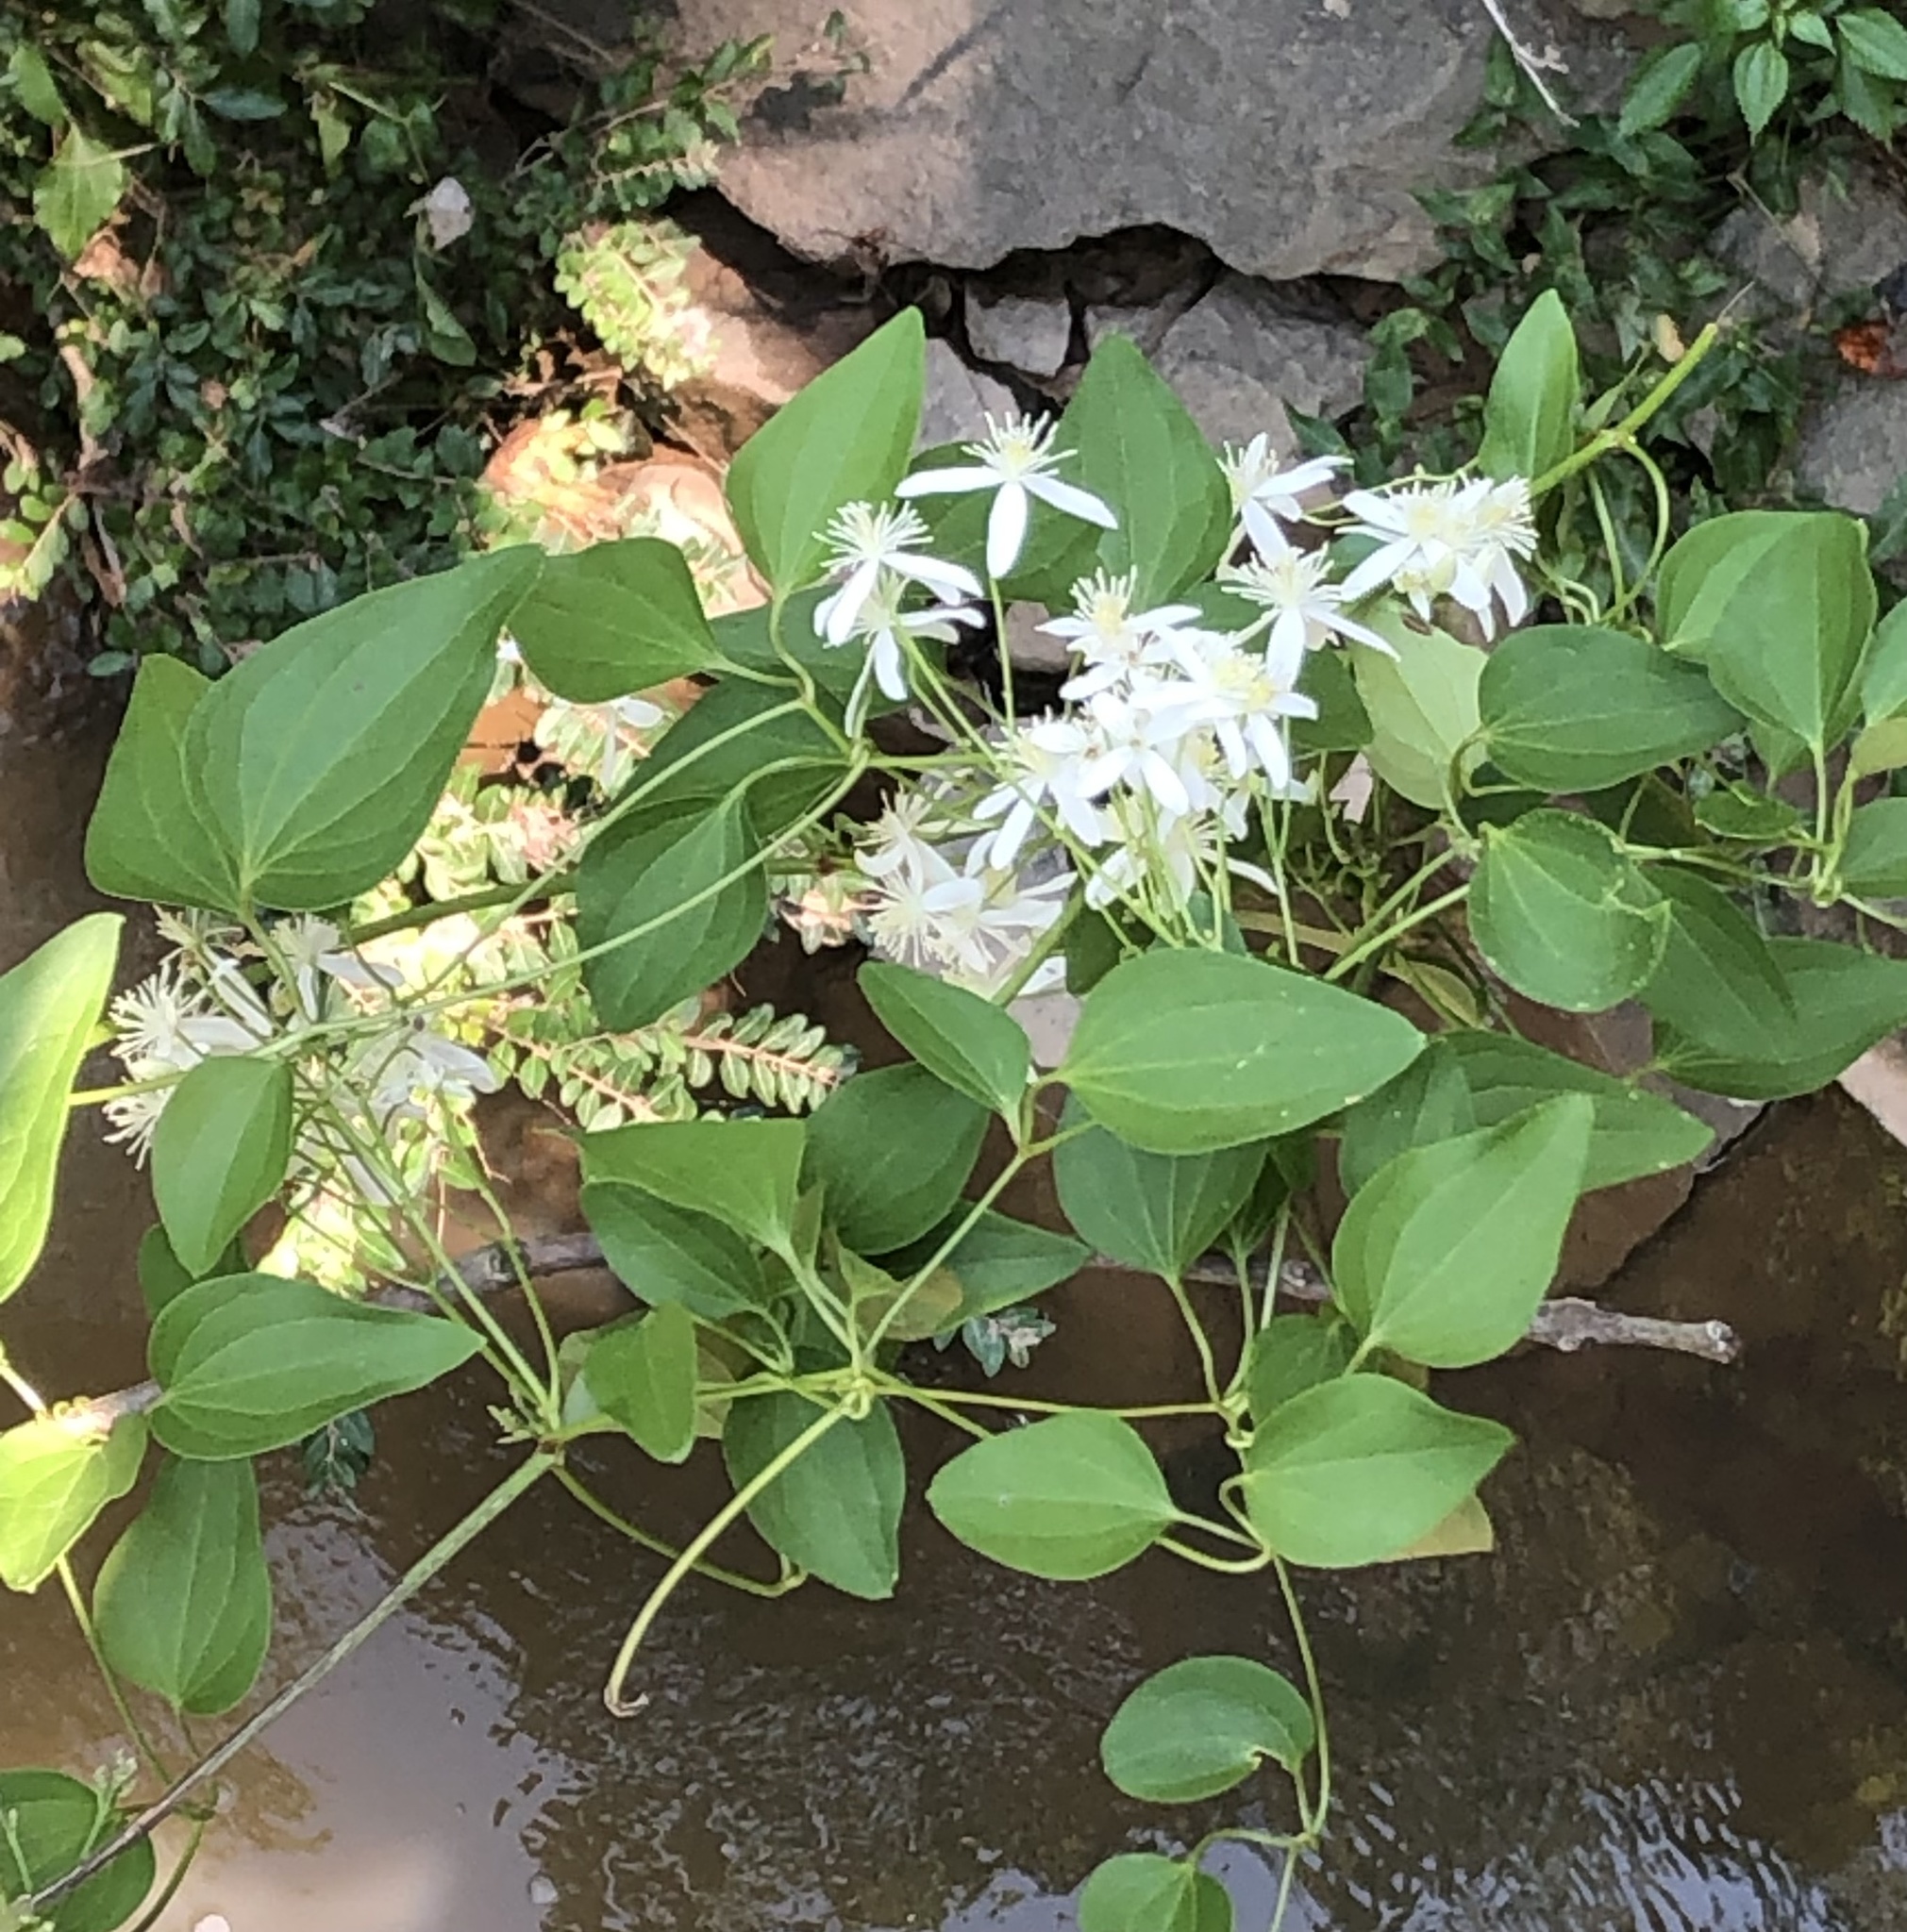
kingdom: Plantae
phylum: Tracheophyta
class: Magnoliopsida
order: Ranunculales
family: Ranunculaceae
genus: Clematis
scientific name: Clematis terniflora
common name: Sweet autumn clematis
